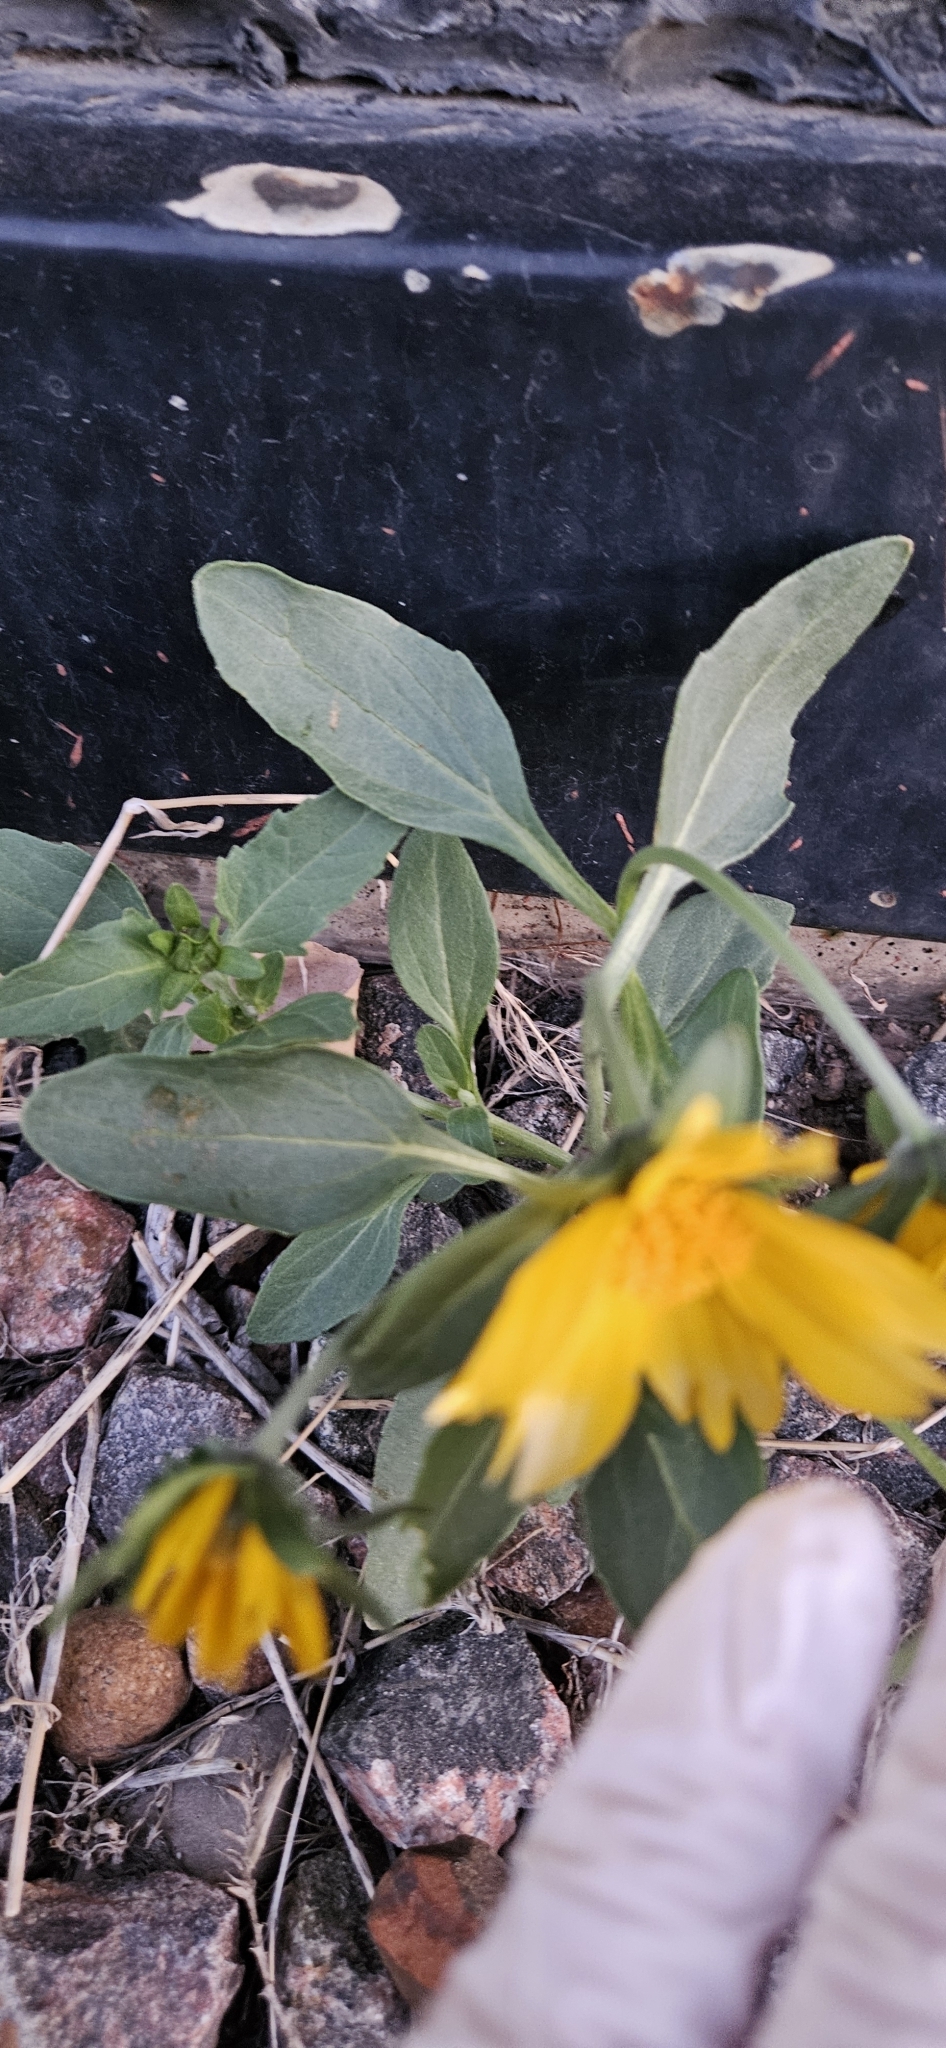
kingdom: Plantae
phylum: Tracheophyta
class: Magnoliopsida
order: Asterales
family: Asteraceae
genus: Verbesina
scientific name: Verbesina encelioides
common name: Golden crownbeard
